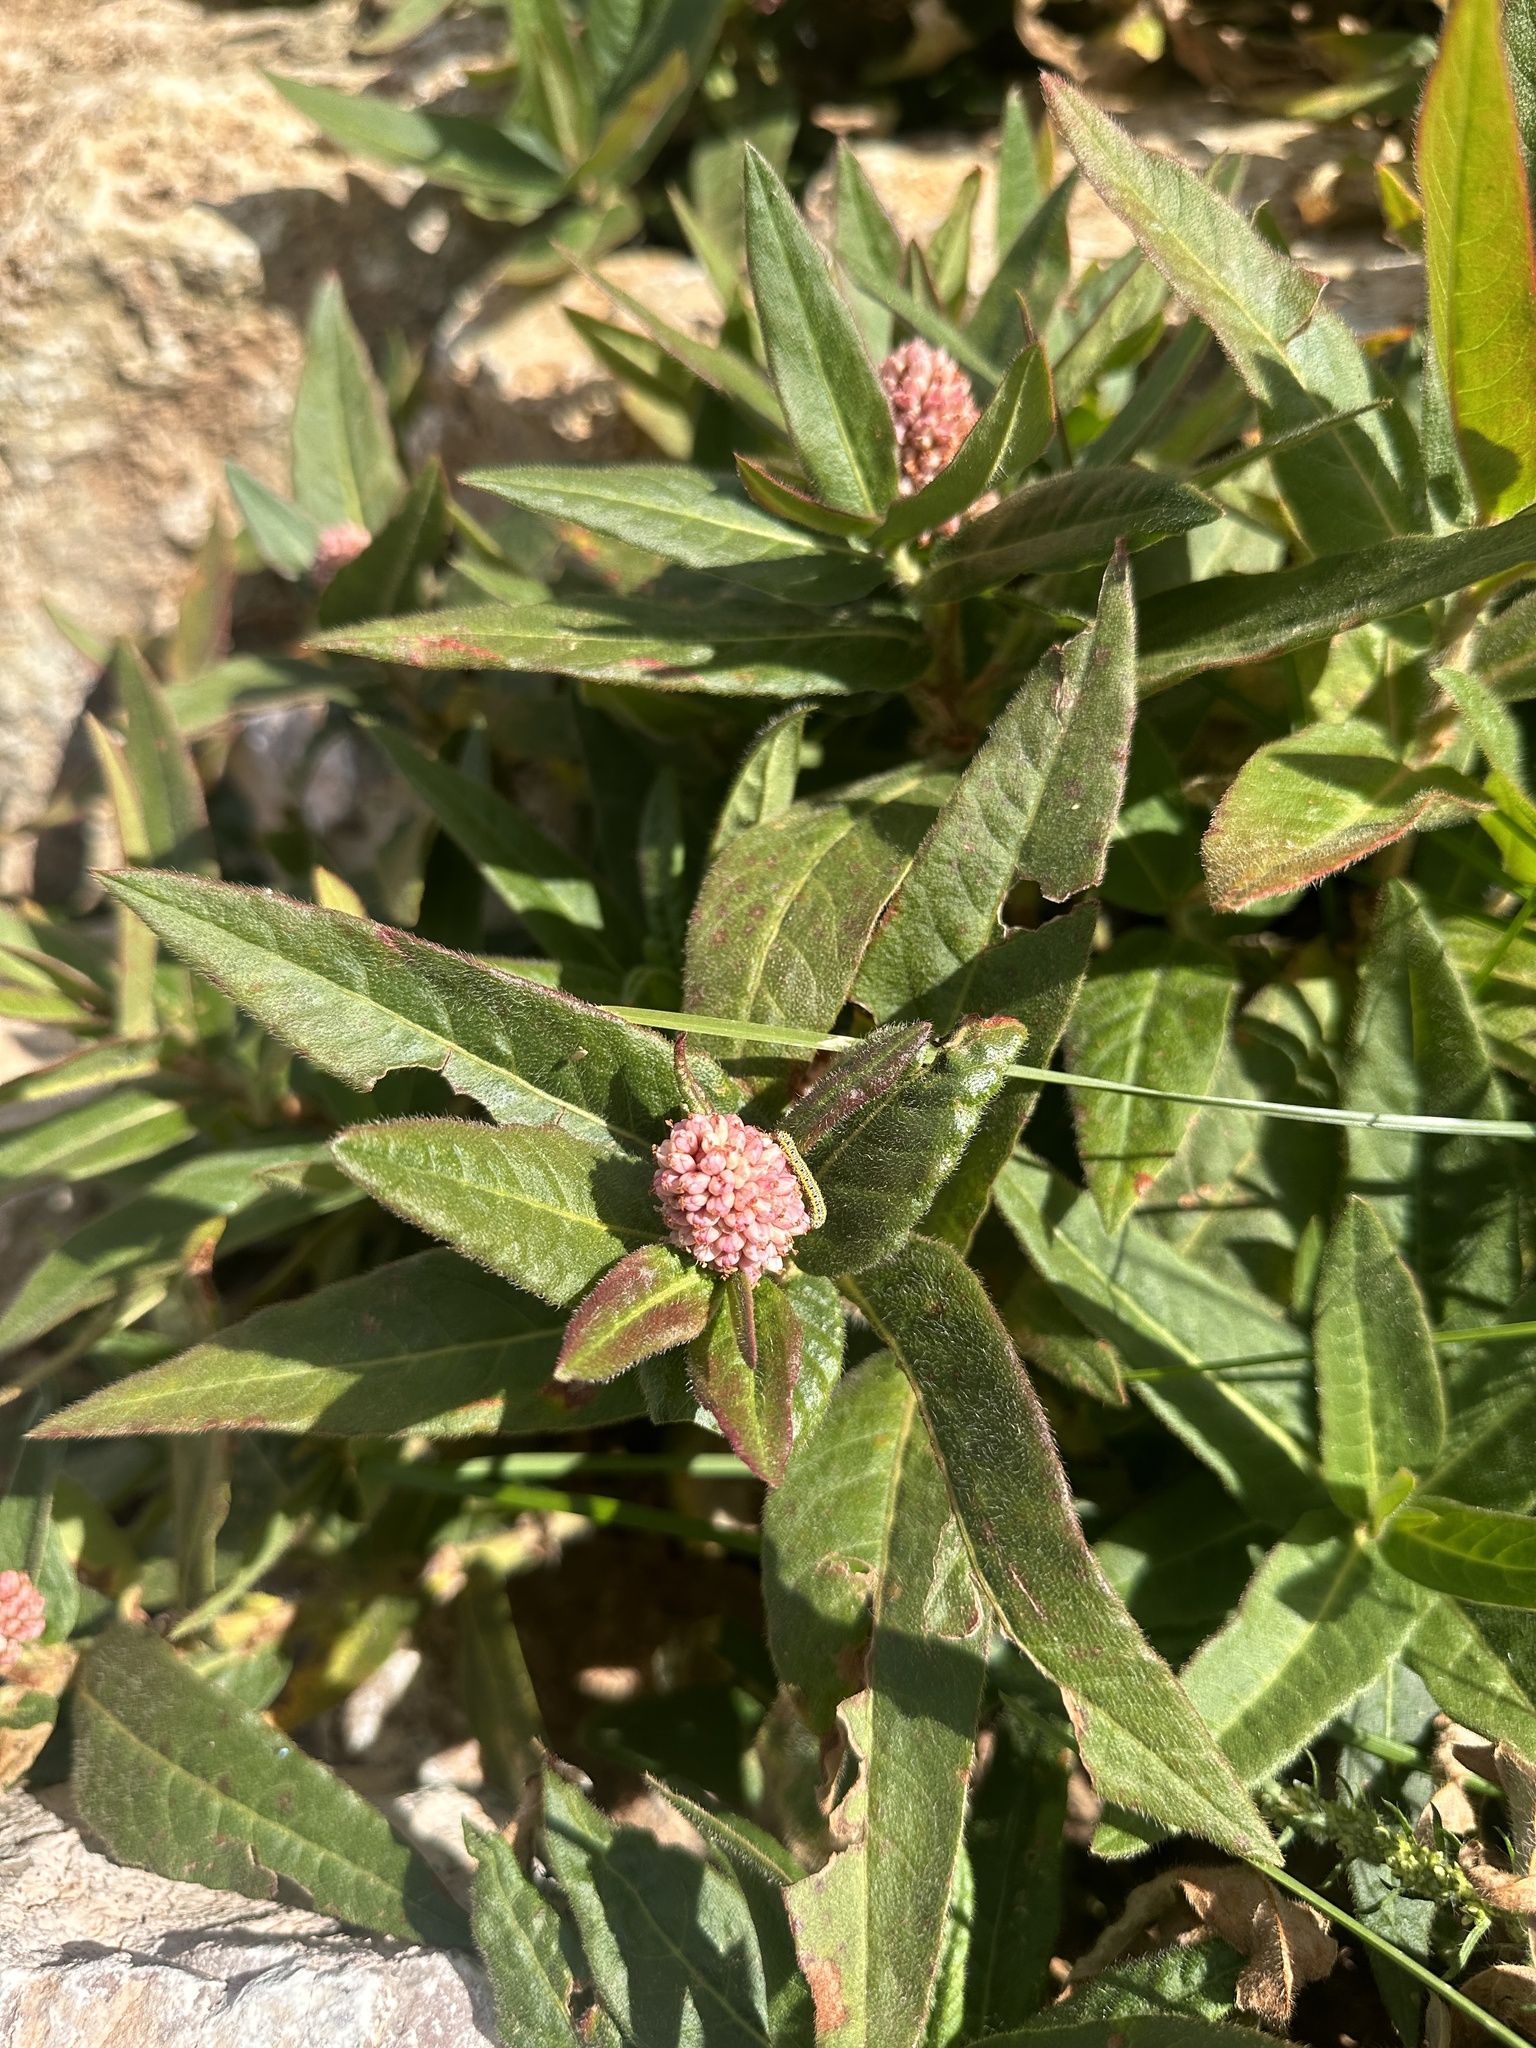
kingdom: Plantae
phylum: Tracheophyta
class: Magnoliopsida
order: Caryophyllales
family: Polygonaceae
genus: Persicaria
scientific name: Persicaria amphibia
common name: Amphibious bistort
